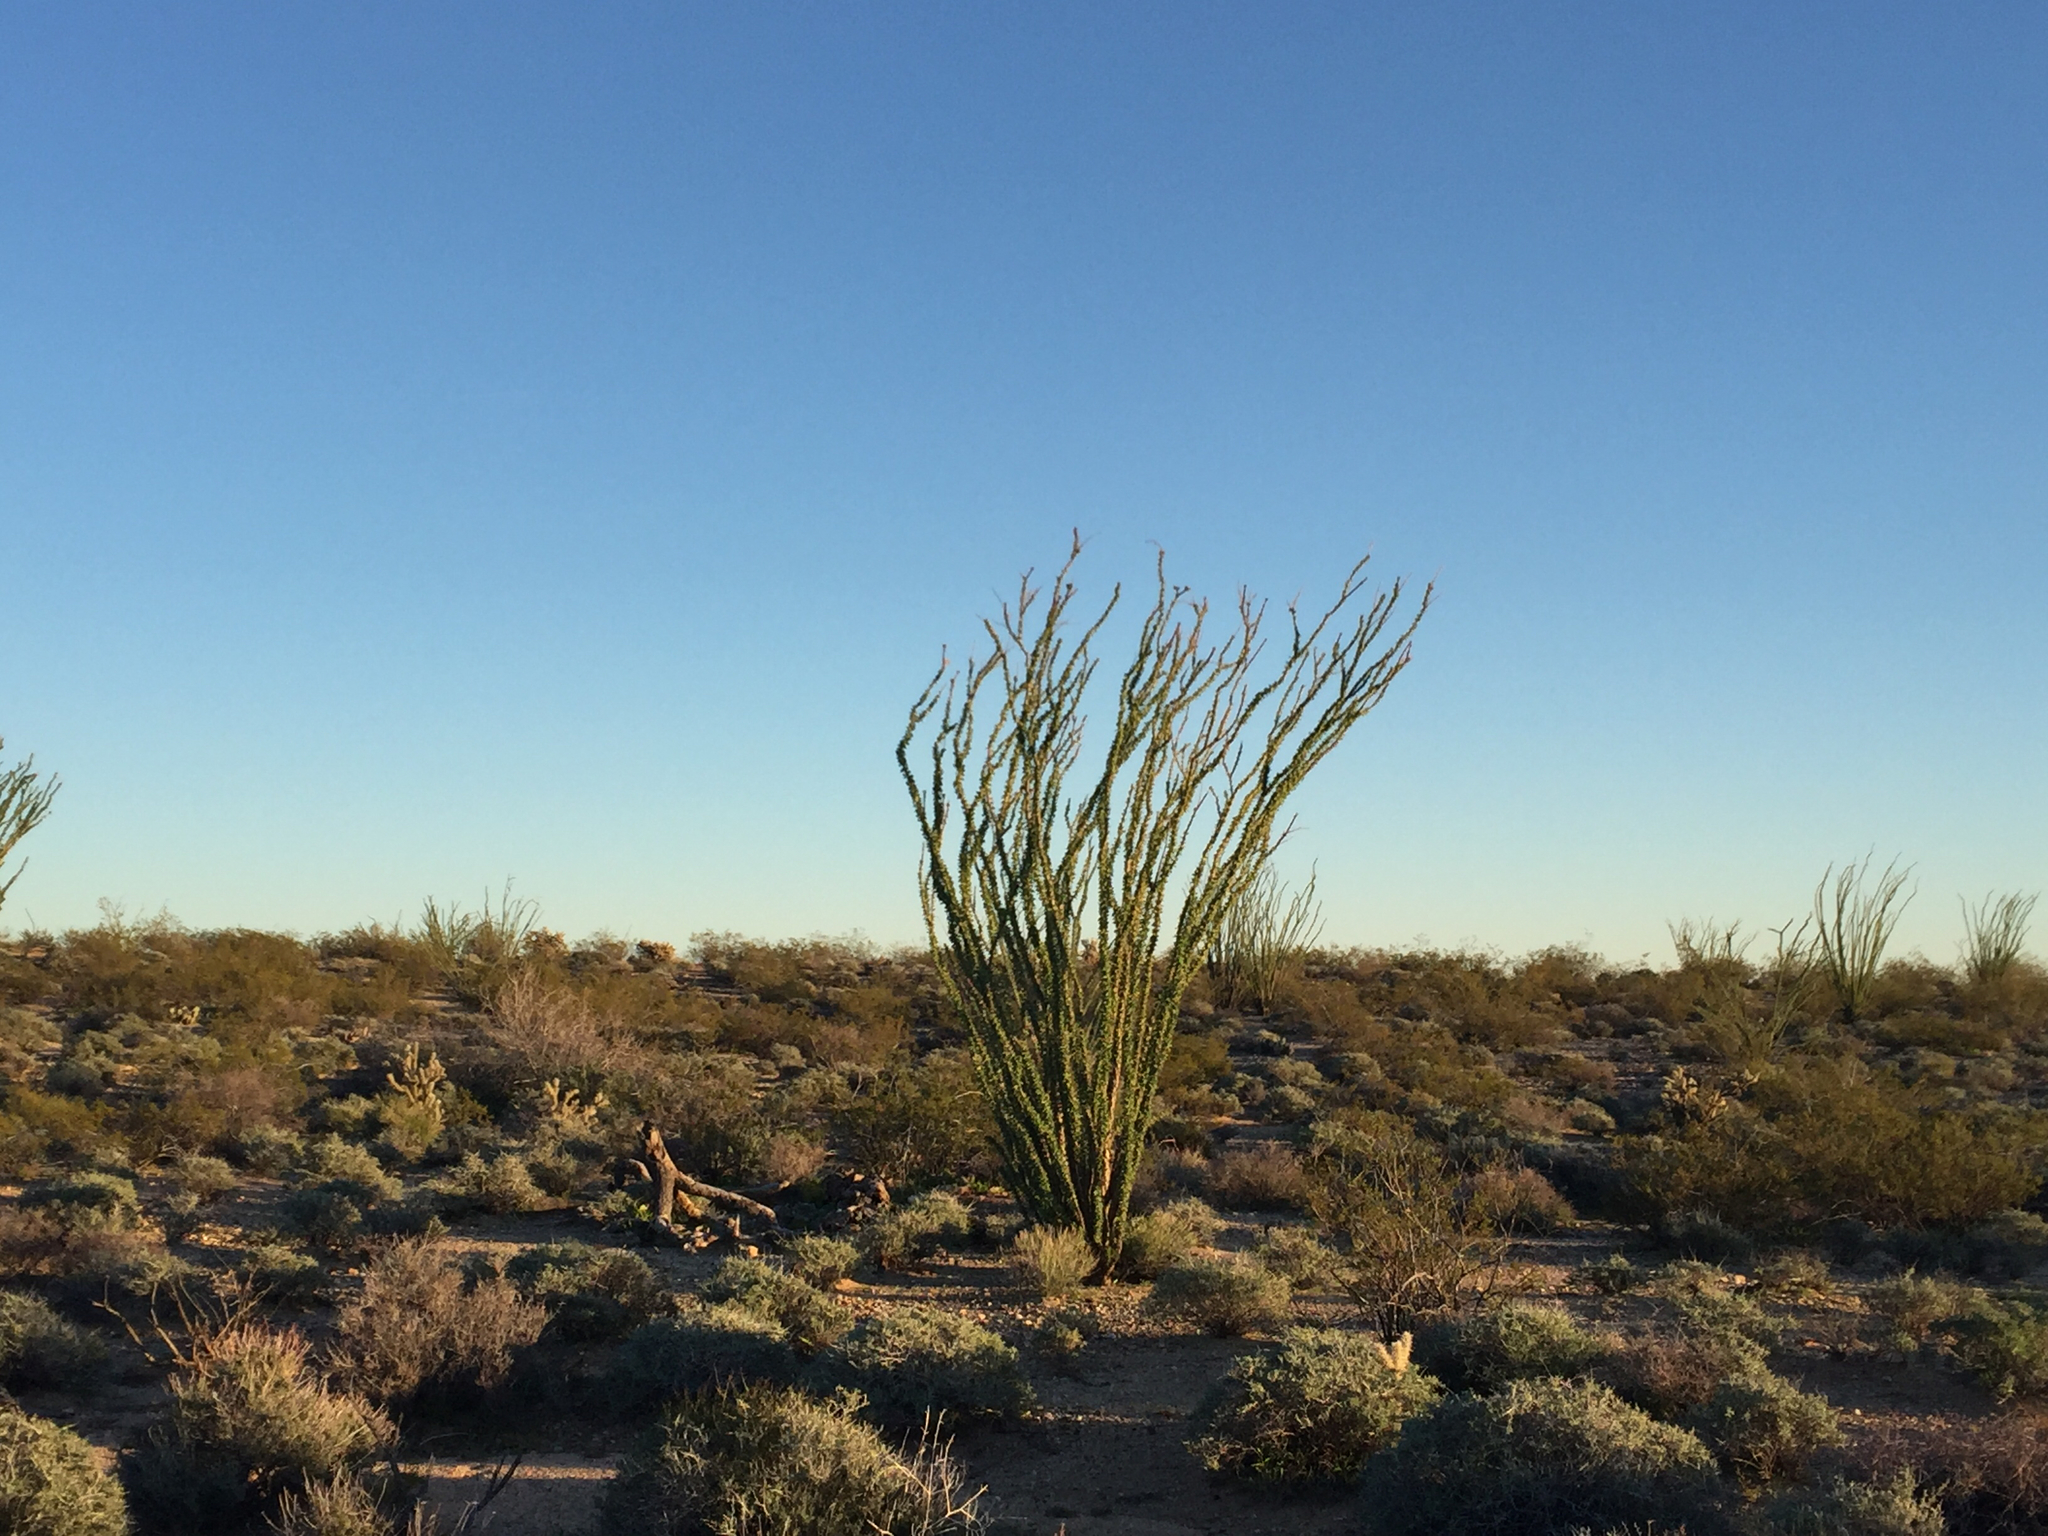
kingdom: Plantae
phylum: Tracheophyta
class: Magnoliopsida
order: Ericales
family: Fouquieriaceae
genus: Fouquieria
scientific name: Fouquieria splendens
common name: Vine-cactus
